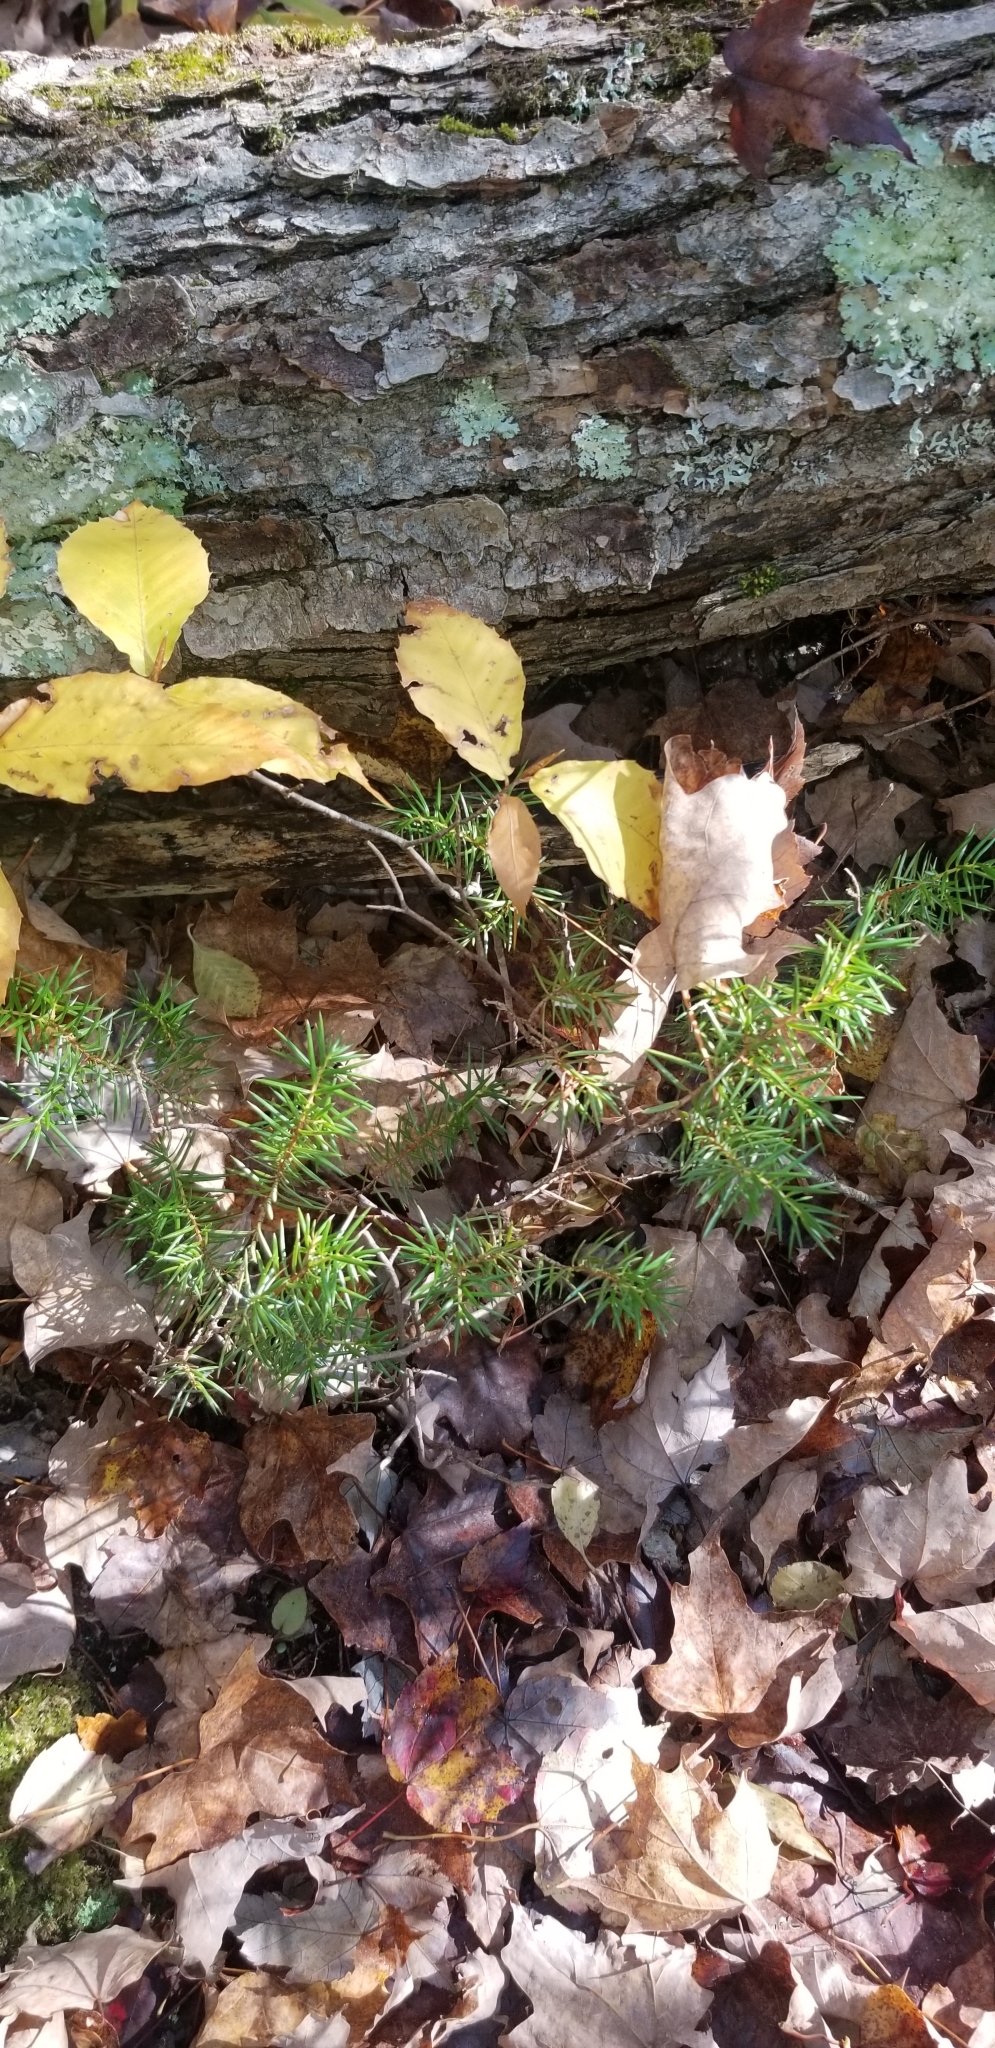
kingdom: Plantae
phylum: Tracheophyta
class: Pinopsida
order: Pinales
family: Cupressaceae
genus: Juniperus
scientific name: Juniperus communis
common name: Common juniper
